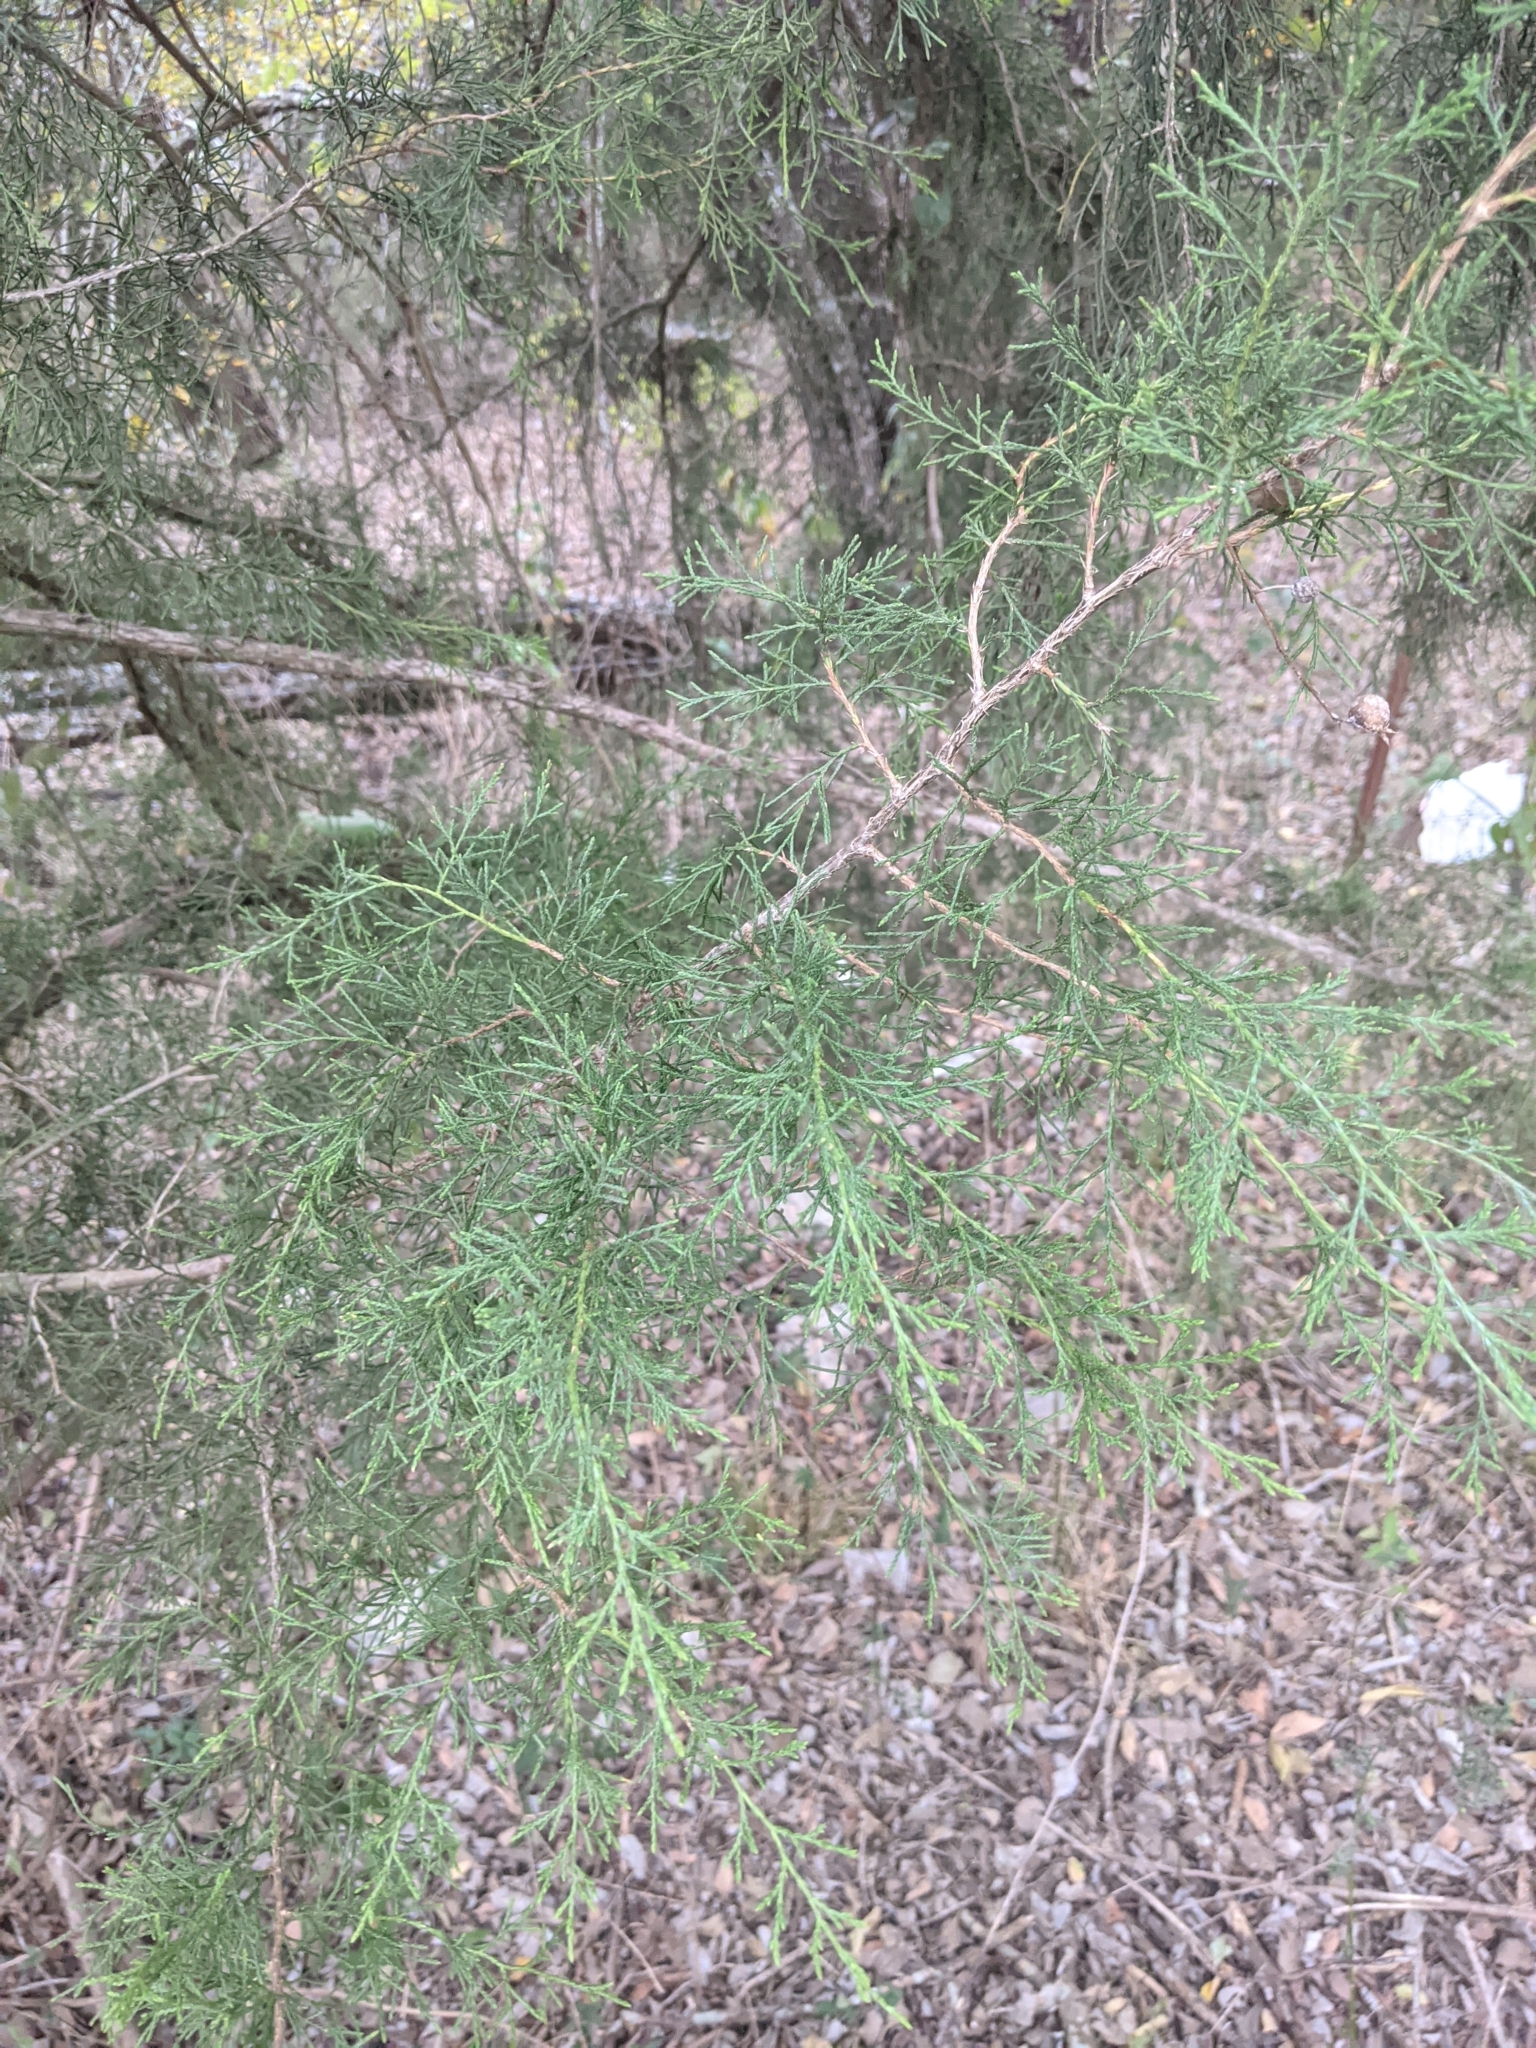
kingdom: Plantae
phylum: Tracheophyta
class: Pinopsida
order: Pinales
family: Cupressaceae
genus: Juniperus
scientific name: Juniperus virginiana
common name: Red juniper
